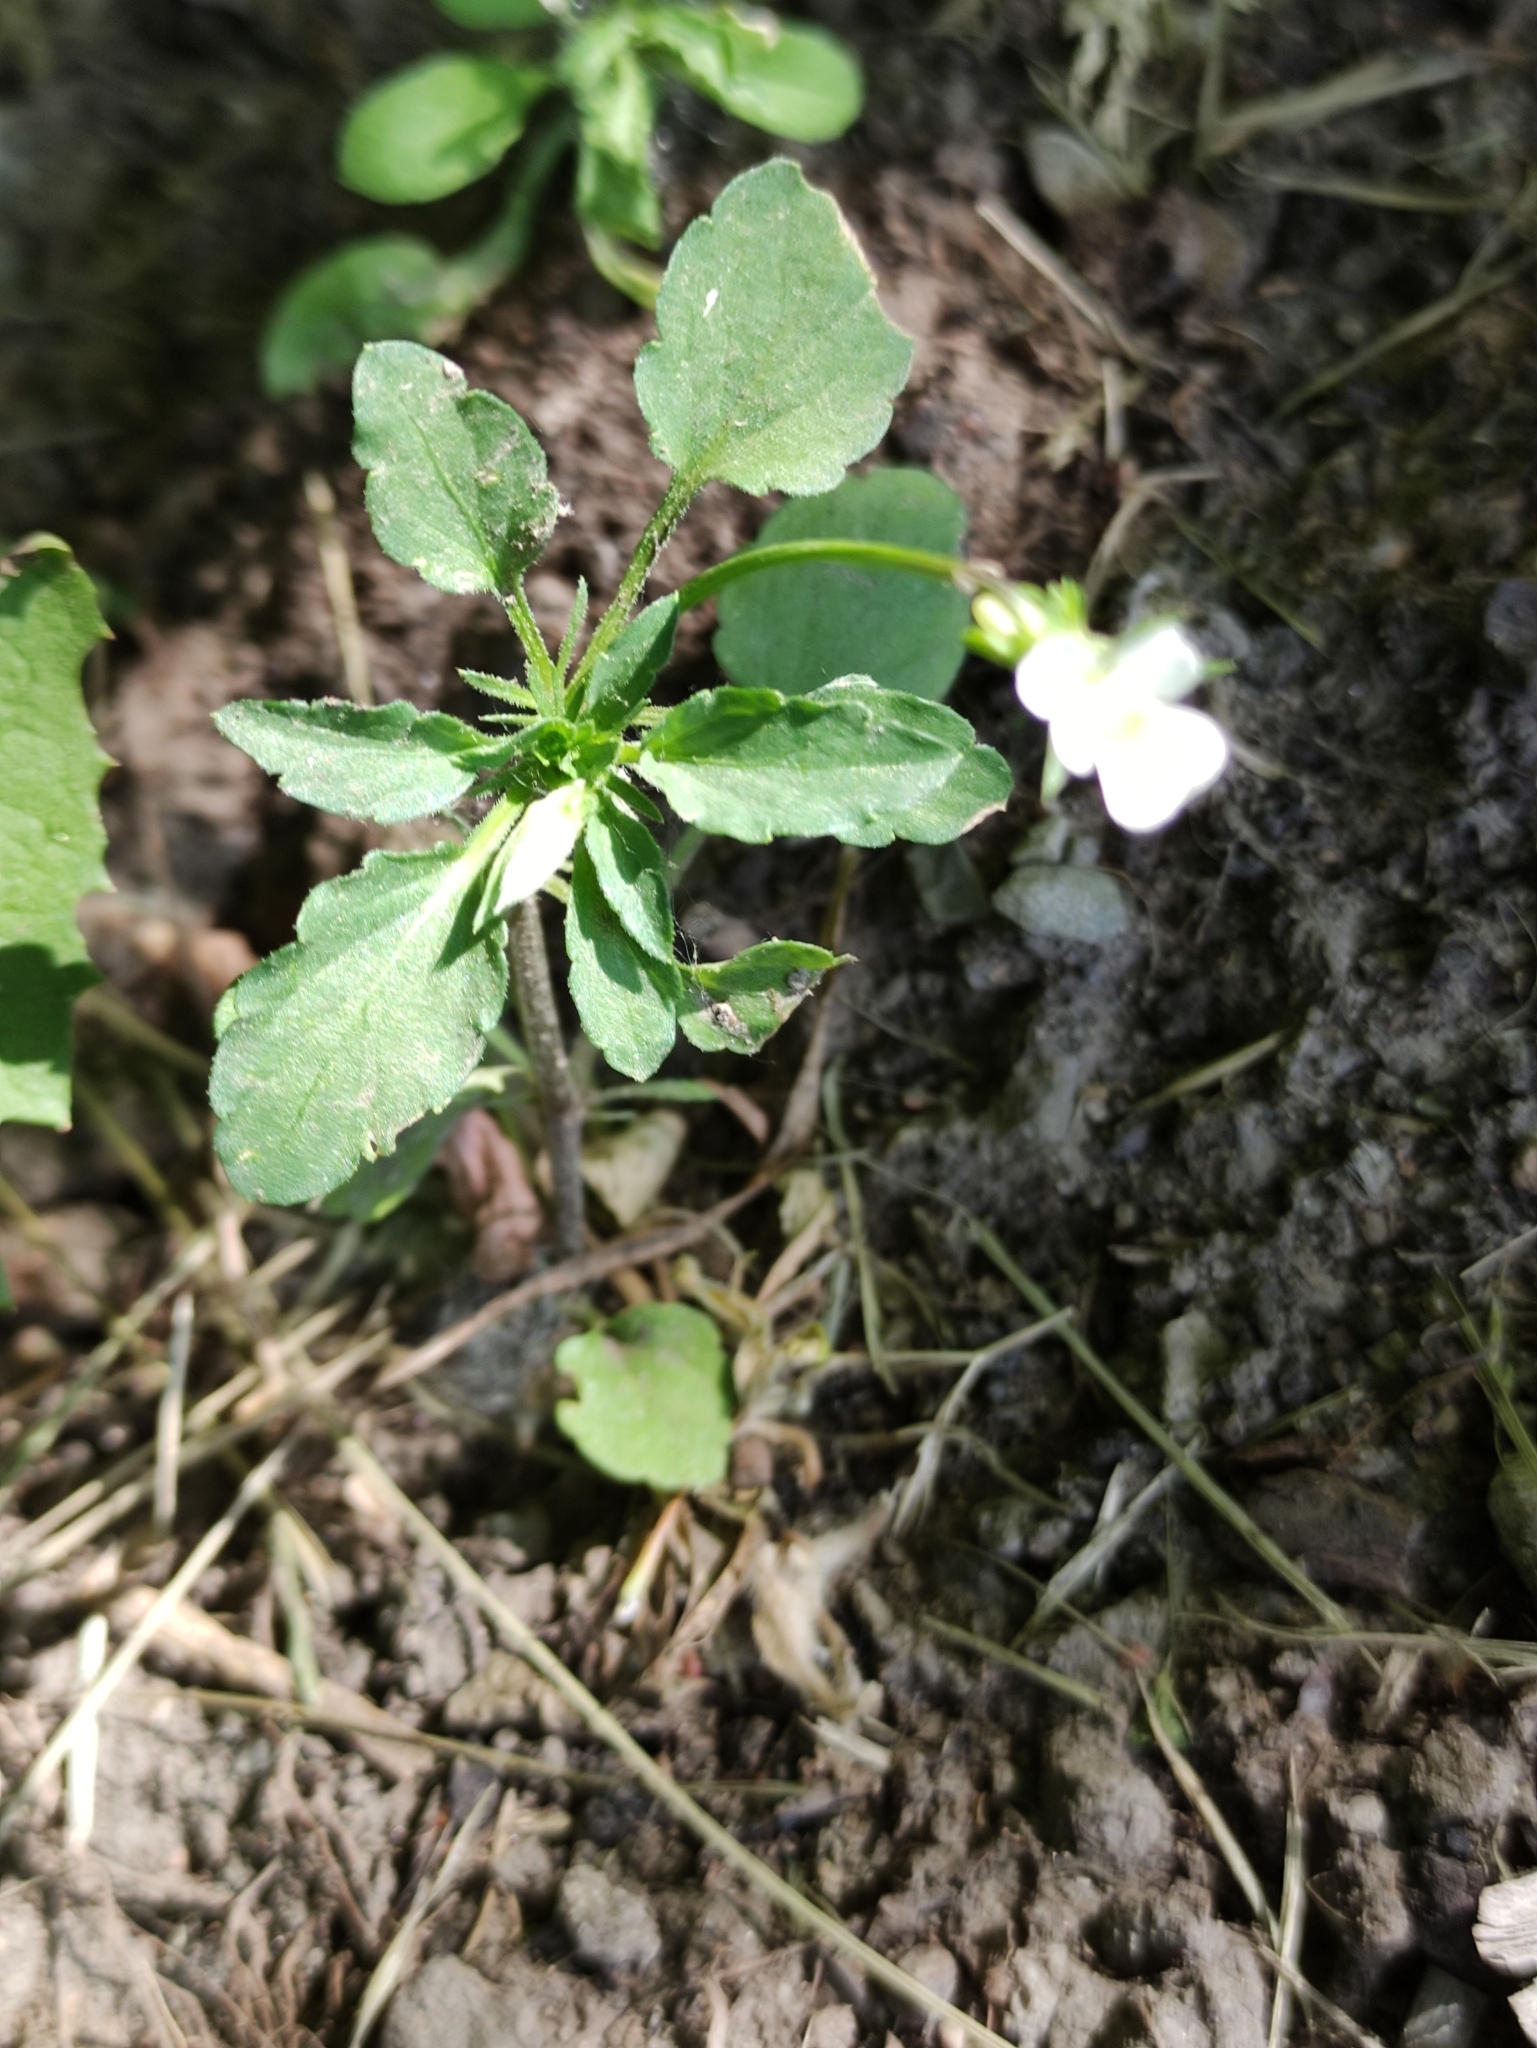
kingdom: Plantae
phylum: Tracheophyta
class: Magnoliopsida
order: Malpighiales
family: Violaceae
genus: Viola
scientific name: Viola arvensis
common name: Field pansy
